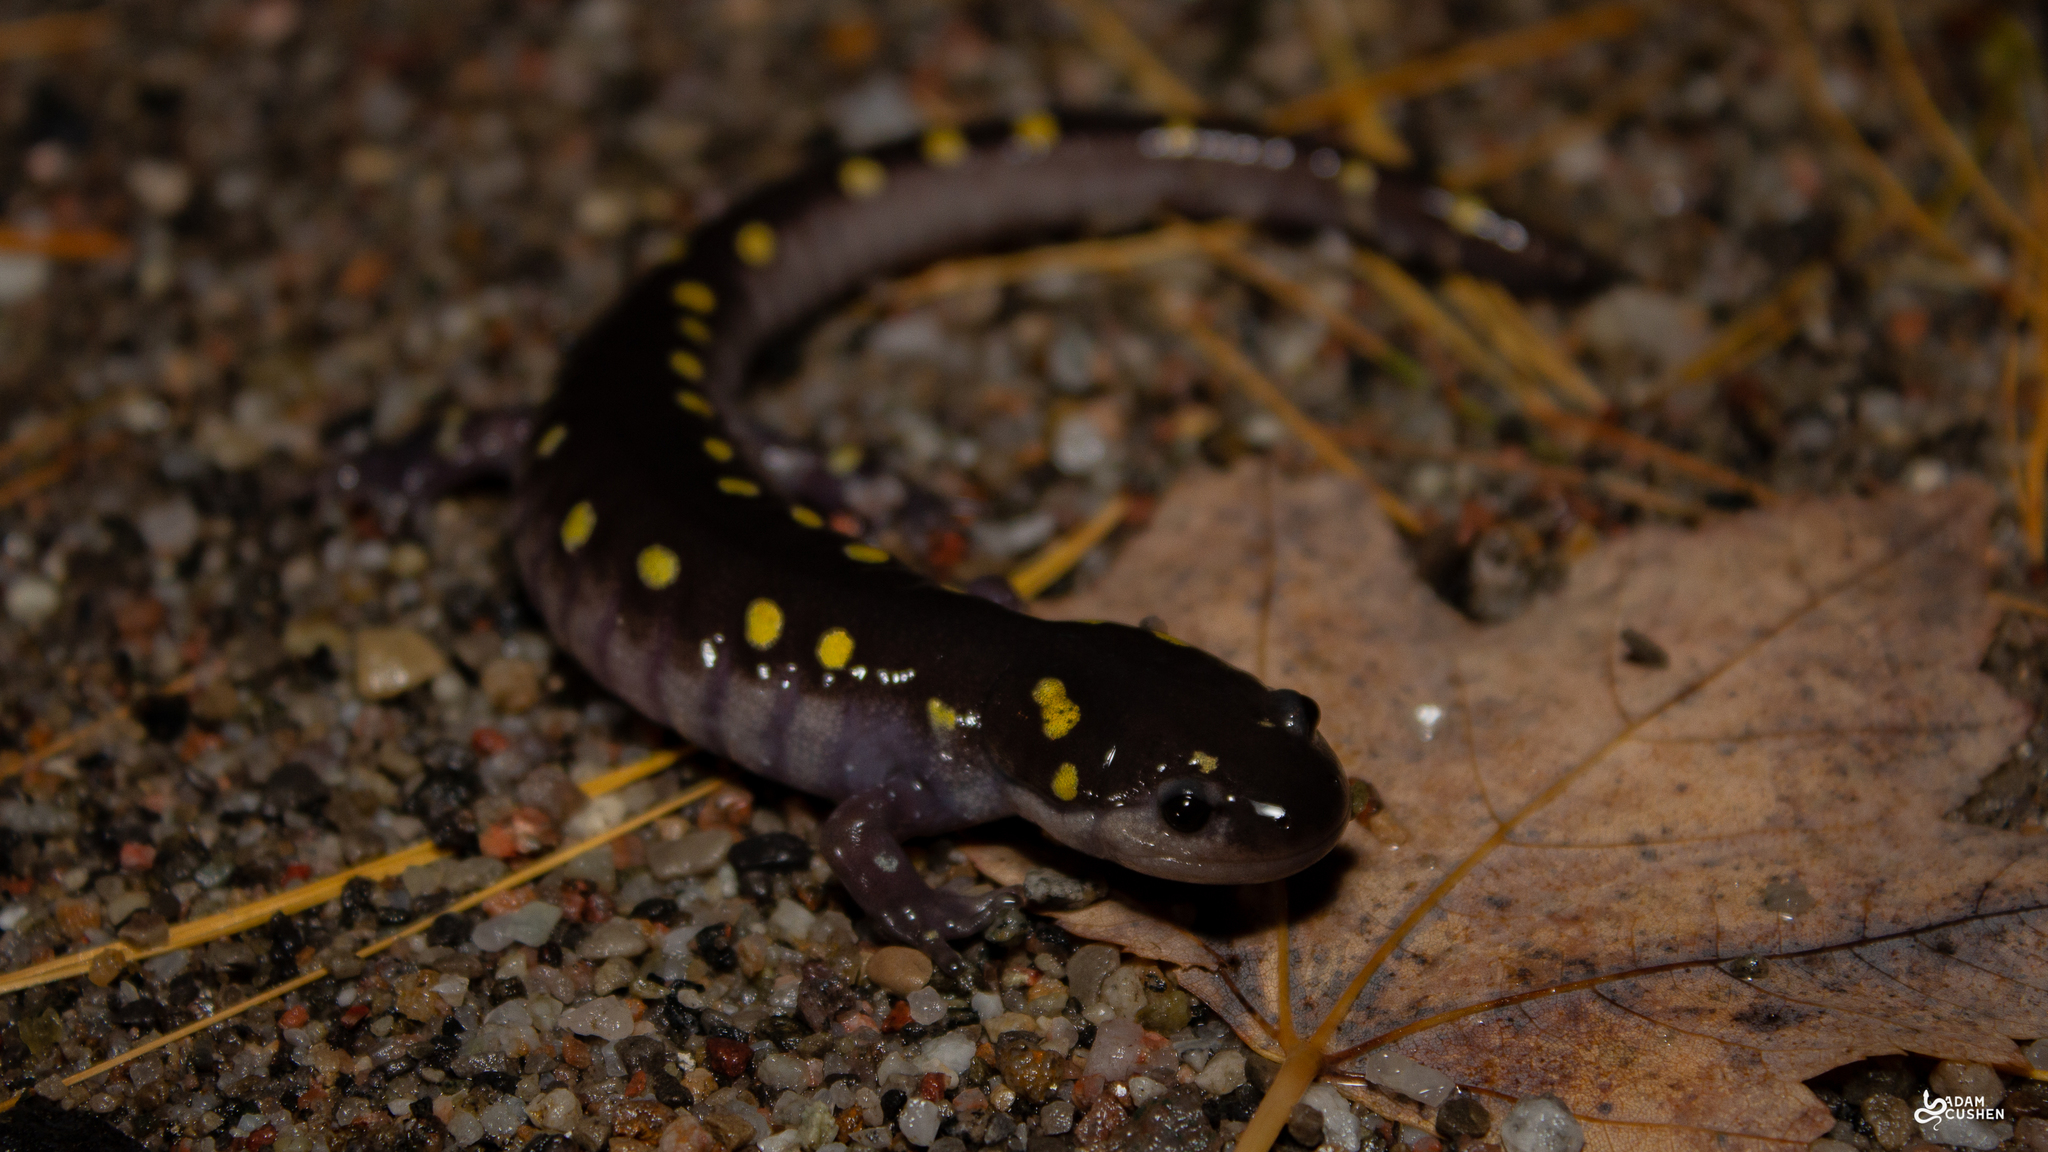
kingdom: Animalia
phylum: Chordata
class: Amphibia
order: Caudata
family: Ambystomatidae
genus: Ambystoma
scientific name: Ambystoma maculatum
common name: Spotted salamander
